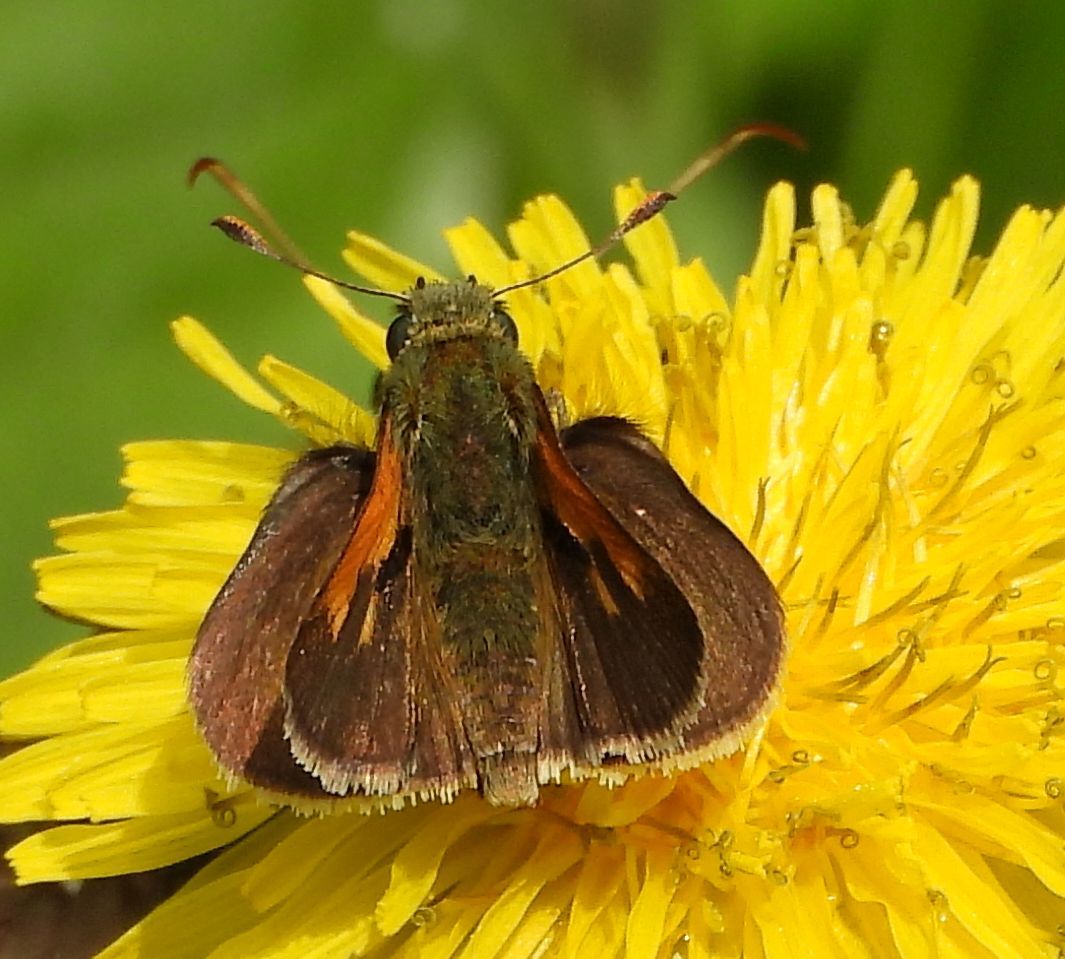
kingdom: Animalia
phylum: Arthropoda
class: Insecta
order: Lepidoptera
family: Hesperiidae
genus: Polites
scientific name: Polites themistocles
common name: Tawny-edged skipper
